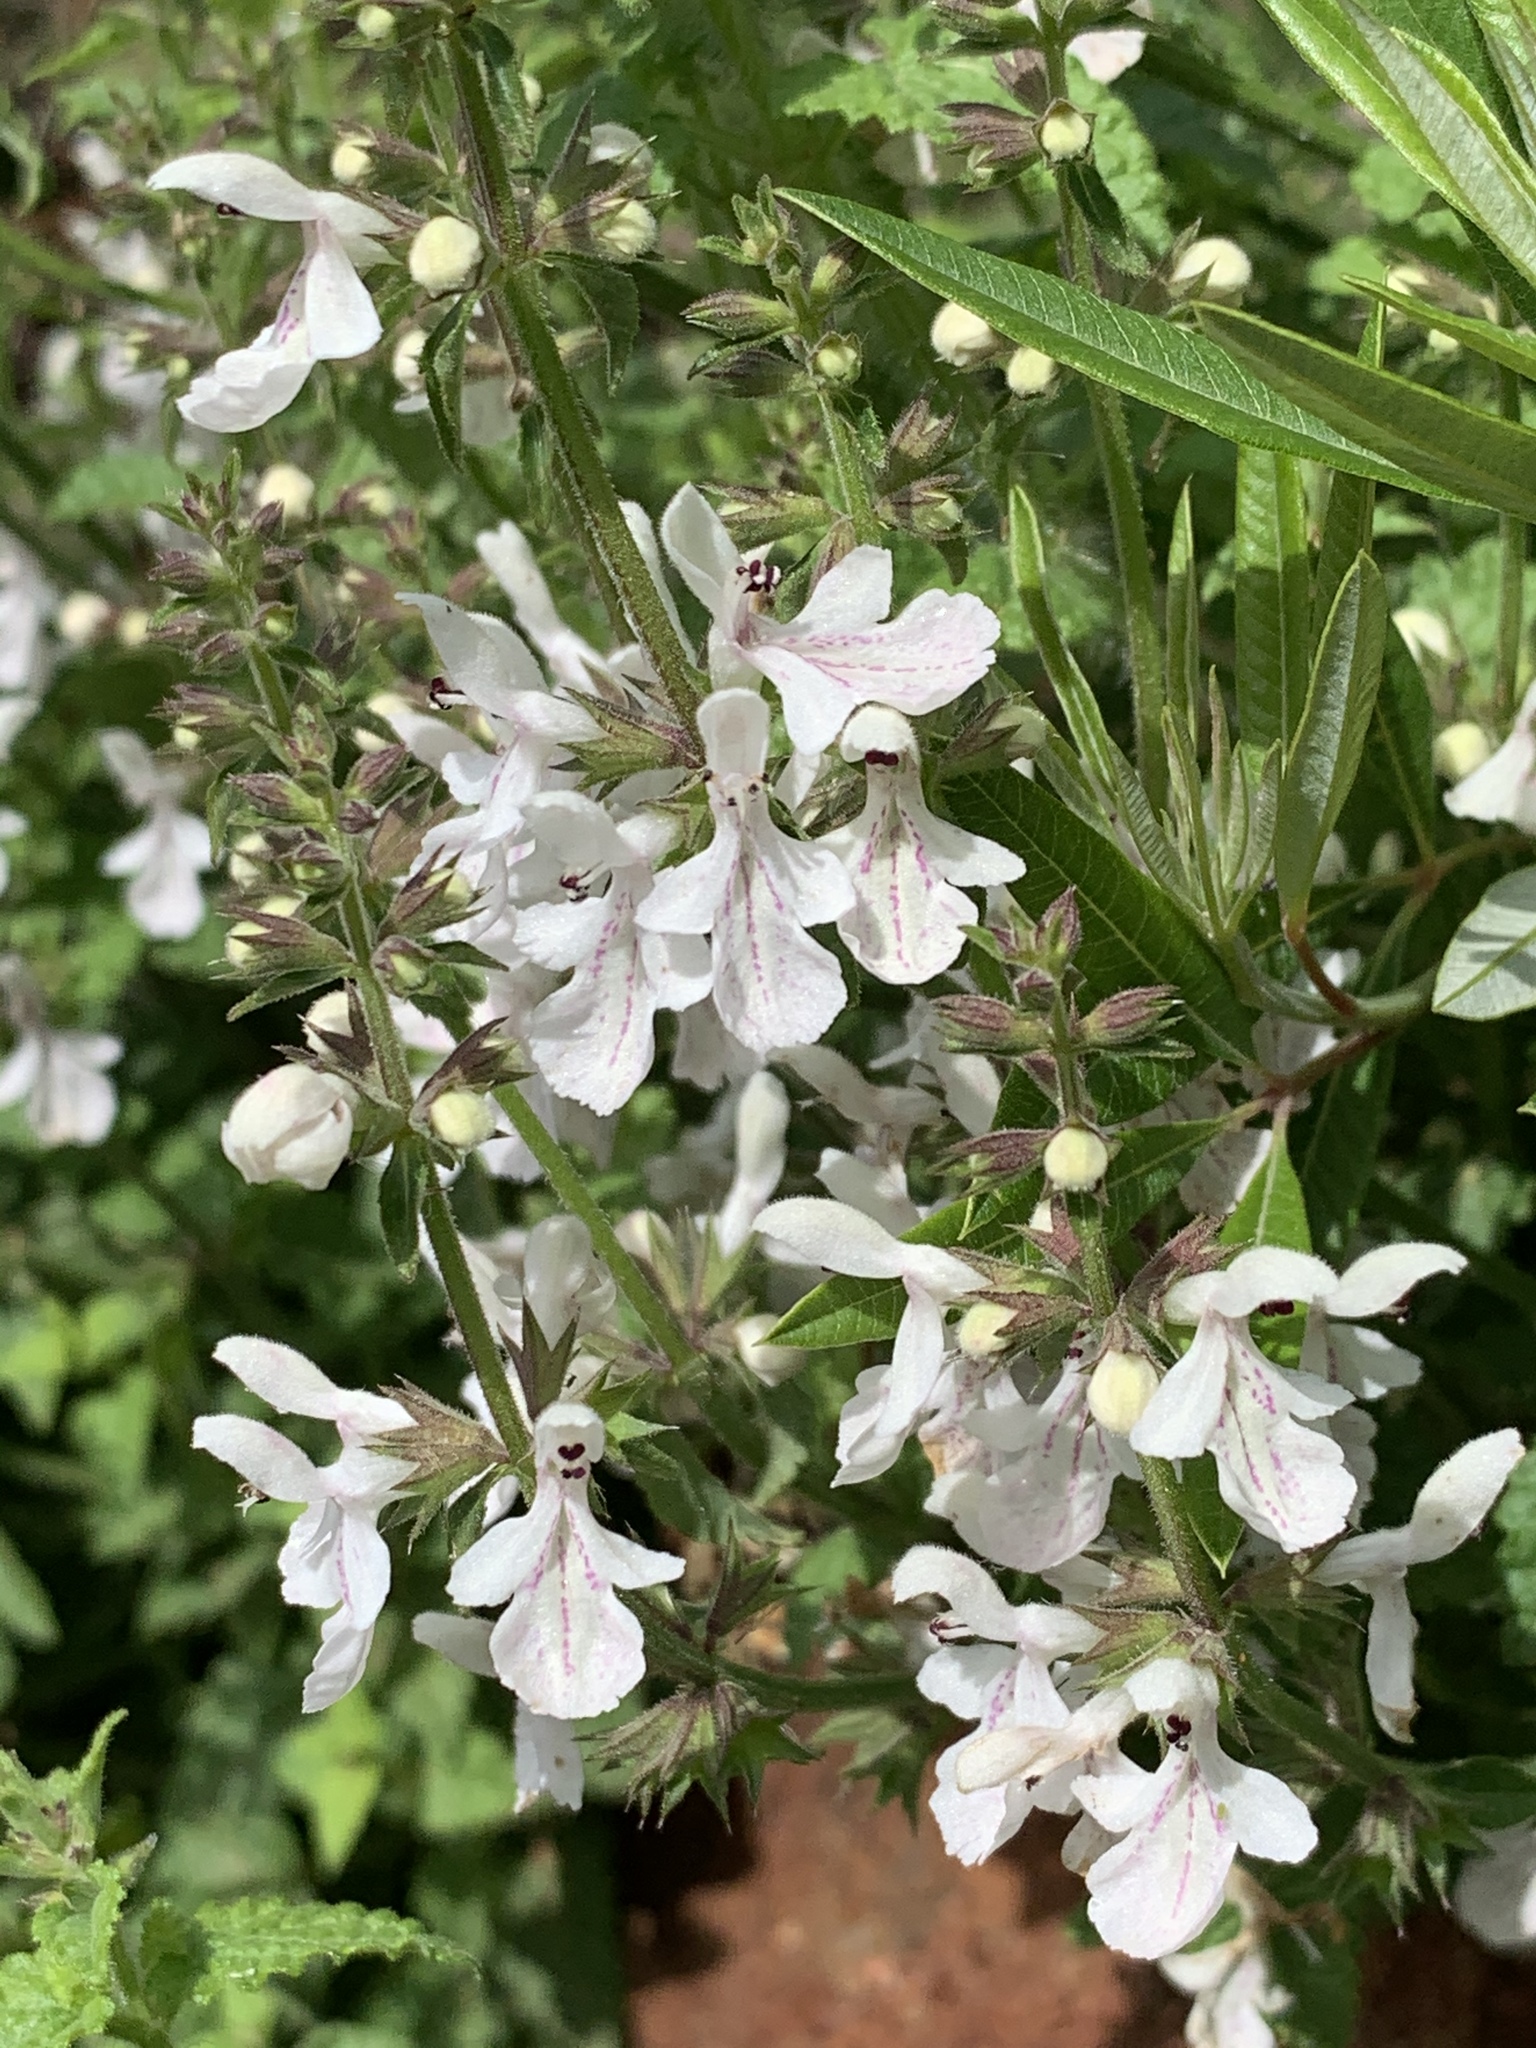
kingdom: Plantae
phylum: Tracheophyta
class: Magnoliopsida
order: Lamiales
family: Lamiaceae
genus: Stachys
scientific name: Stachys aethiopica
